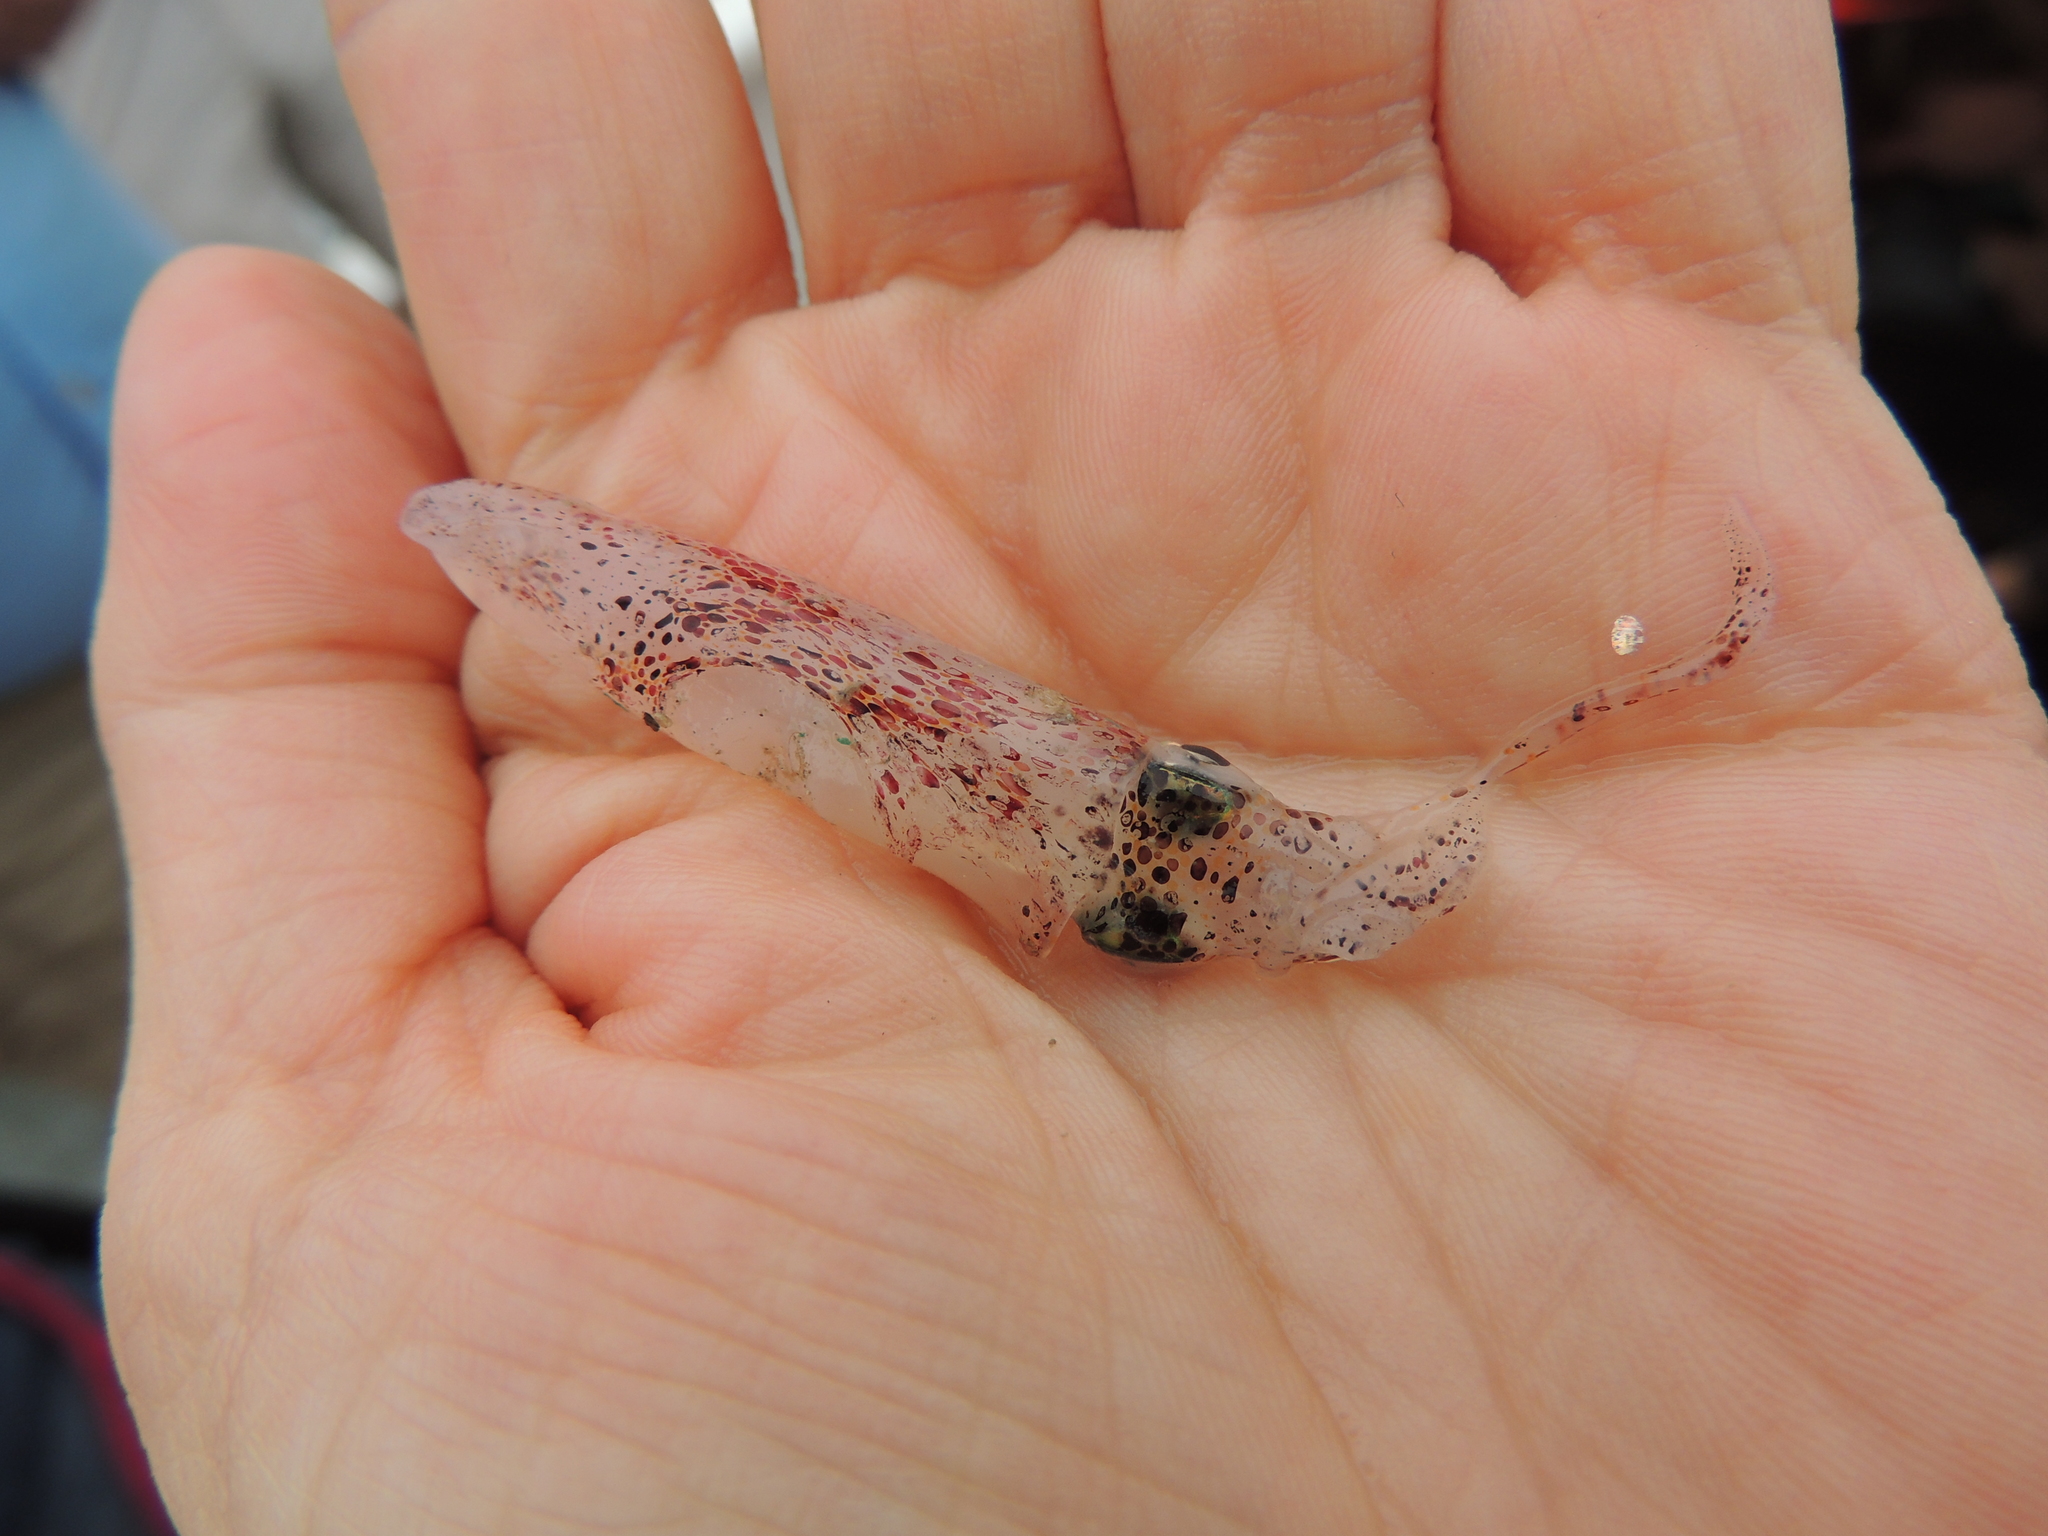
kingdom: Animalia
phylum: Mollusca
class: Cephalopoda
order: Myopsida
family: Loliginidae
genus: Doryteuthis
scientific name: Doryteuthis pleii
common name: Tropical arrow squid
